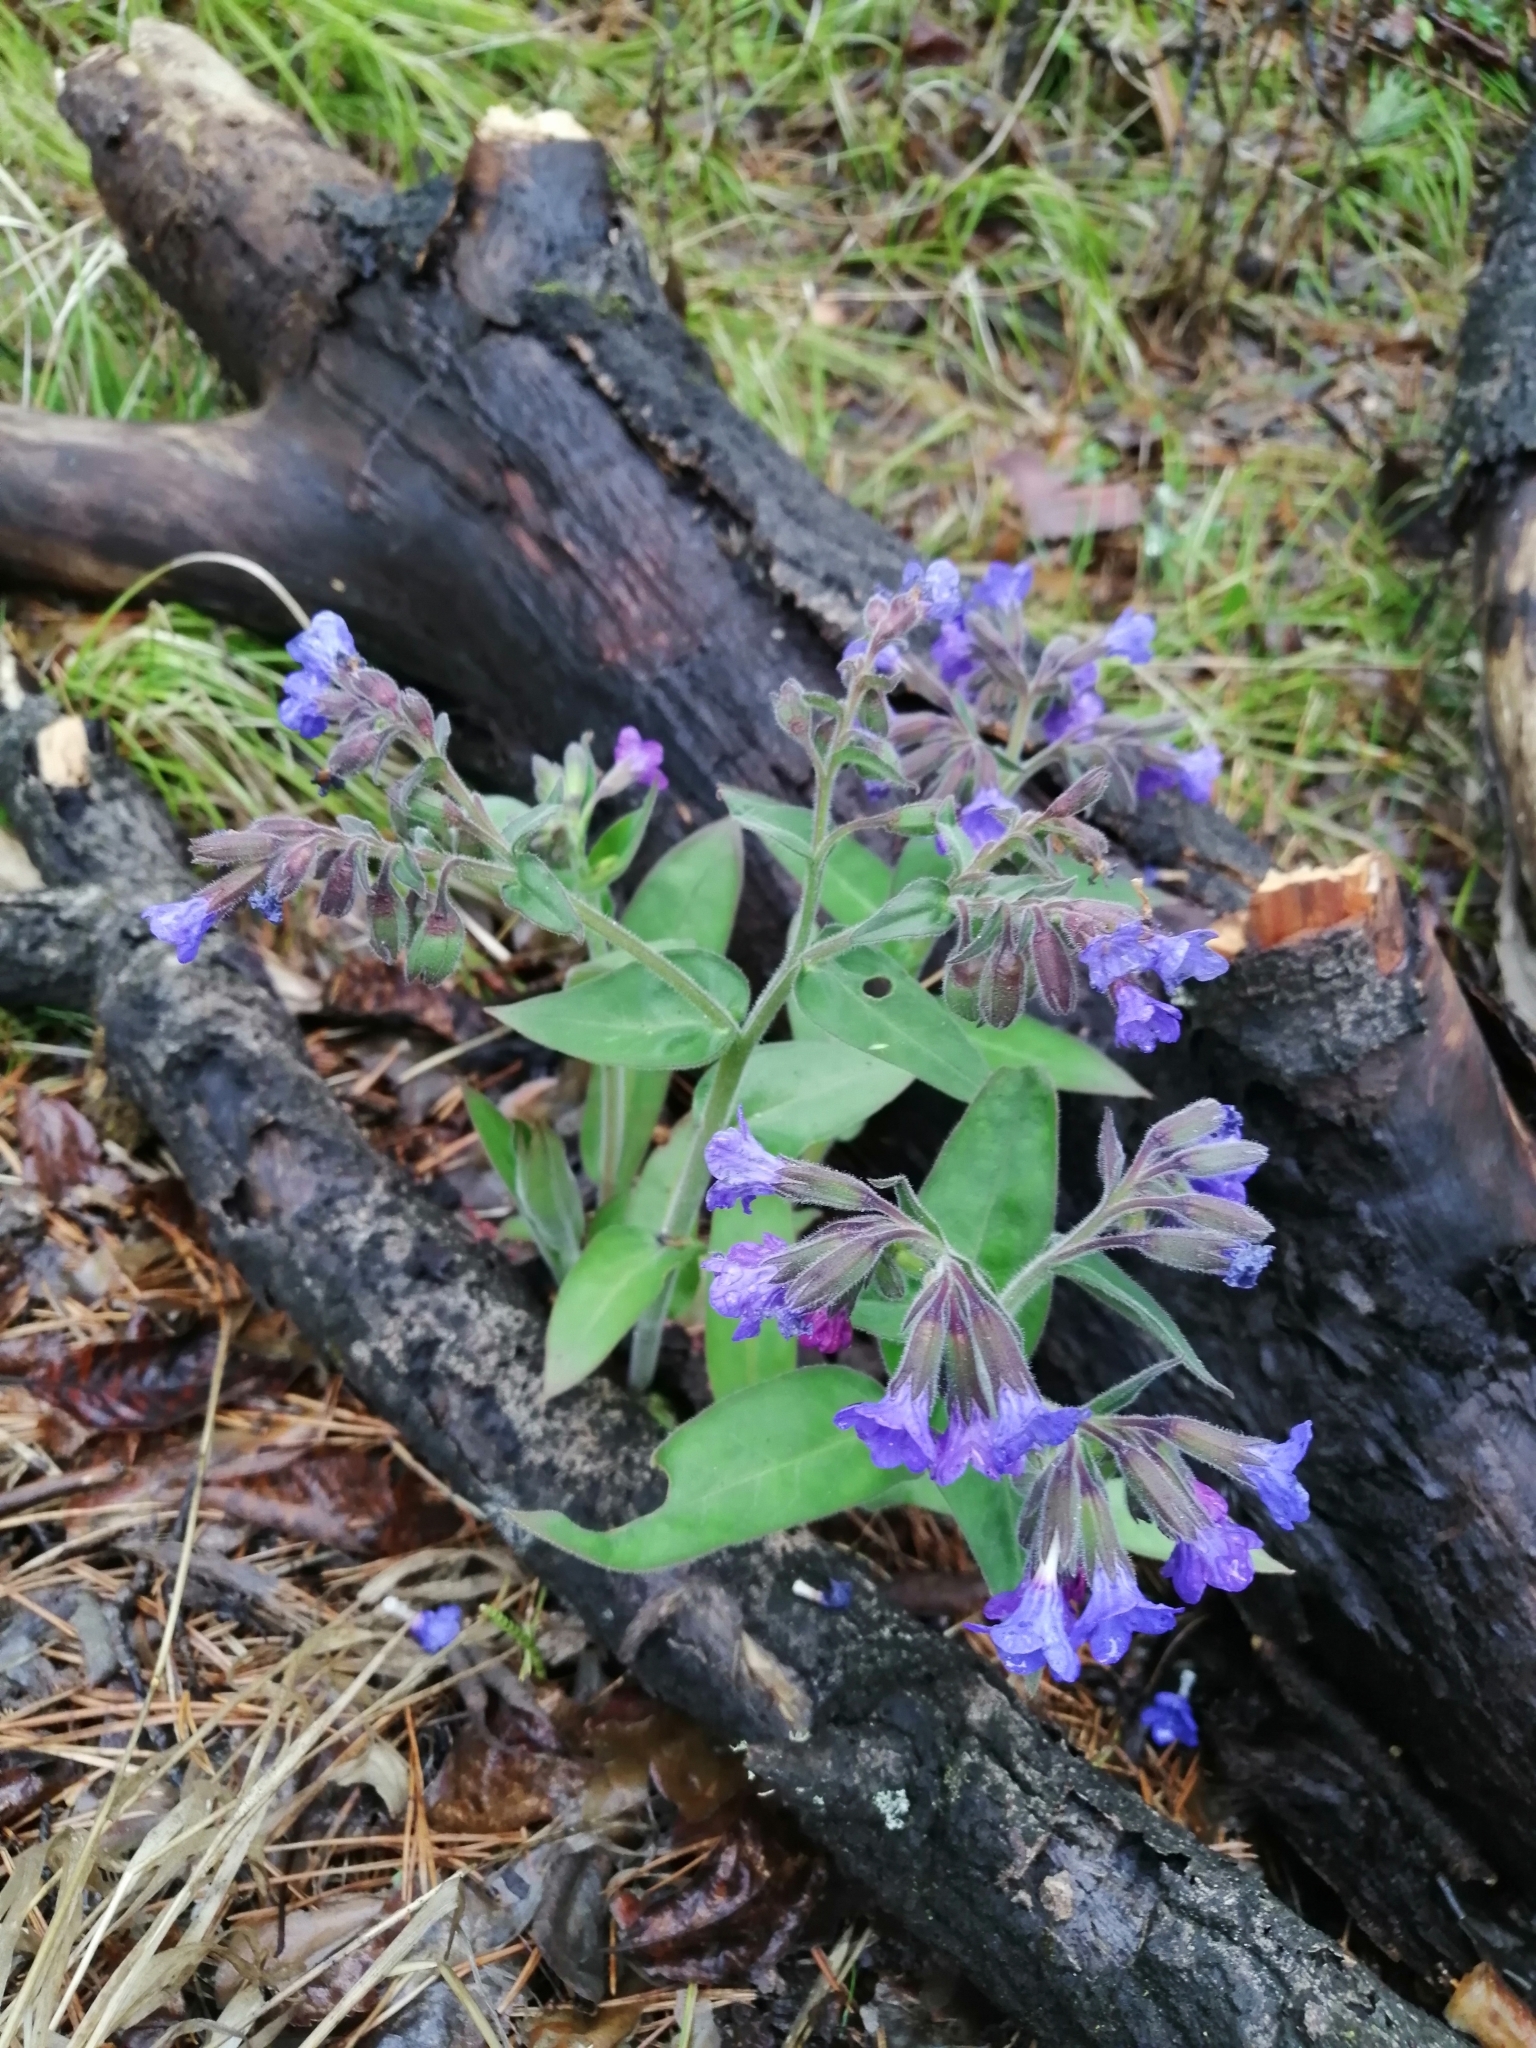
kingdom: Plantae
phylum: Tracheophyta
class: Magnoliopsida
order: Boraginales
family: Boraginaceae
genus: Pulmonaria
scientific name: Pulmonaria mollis
